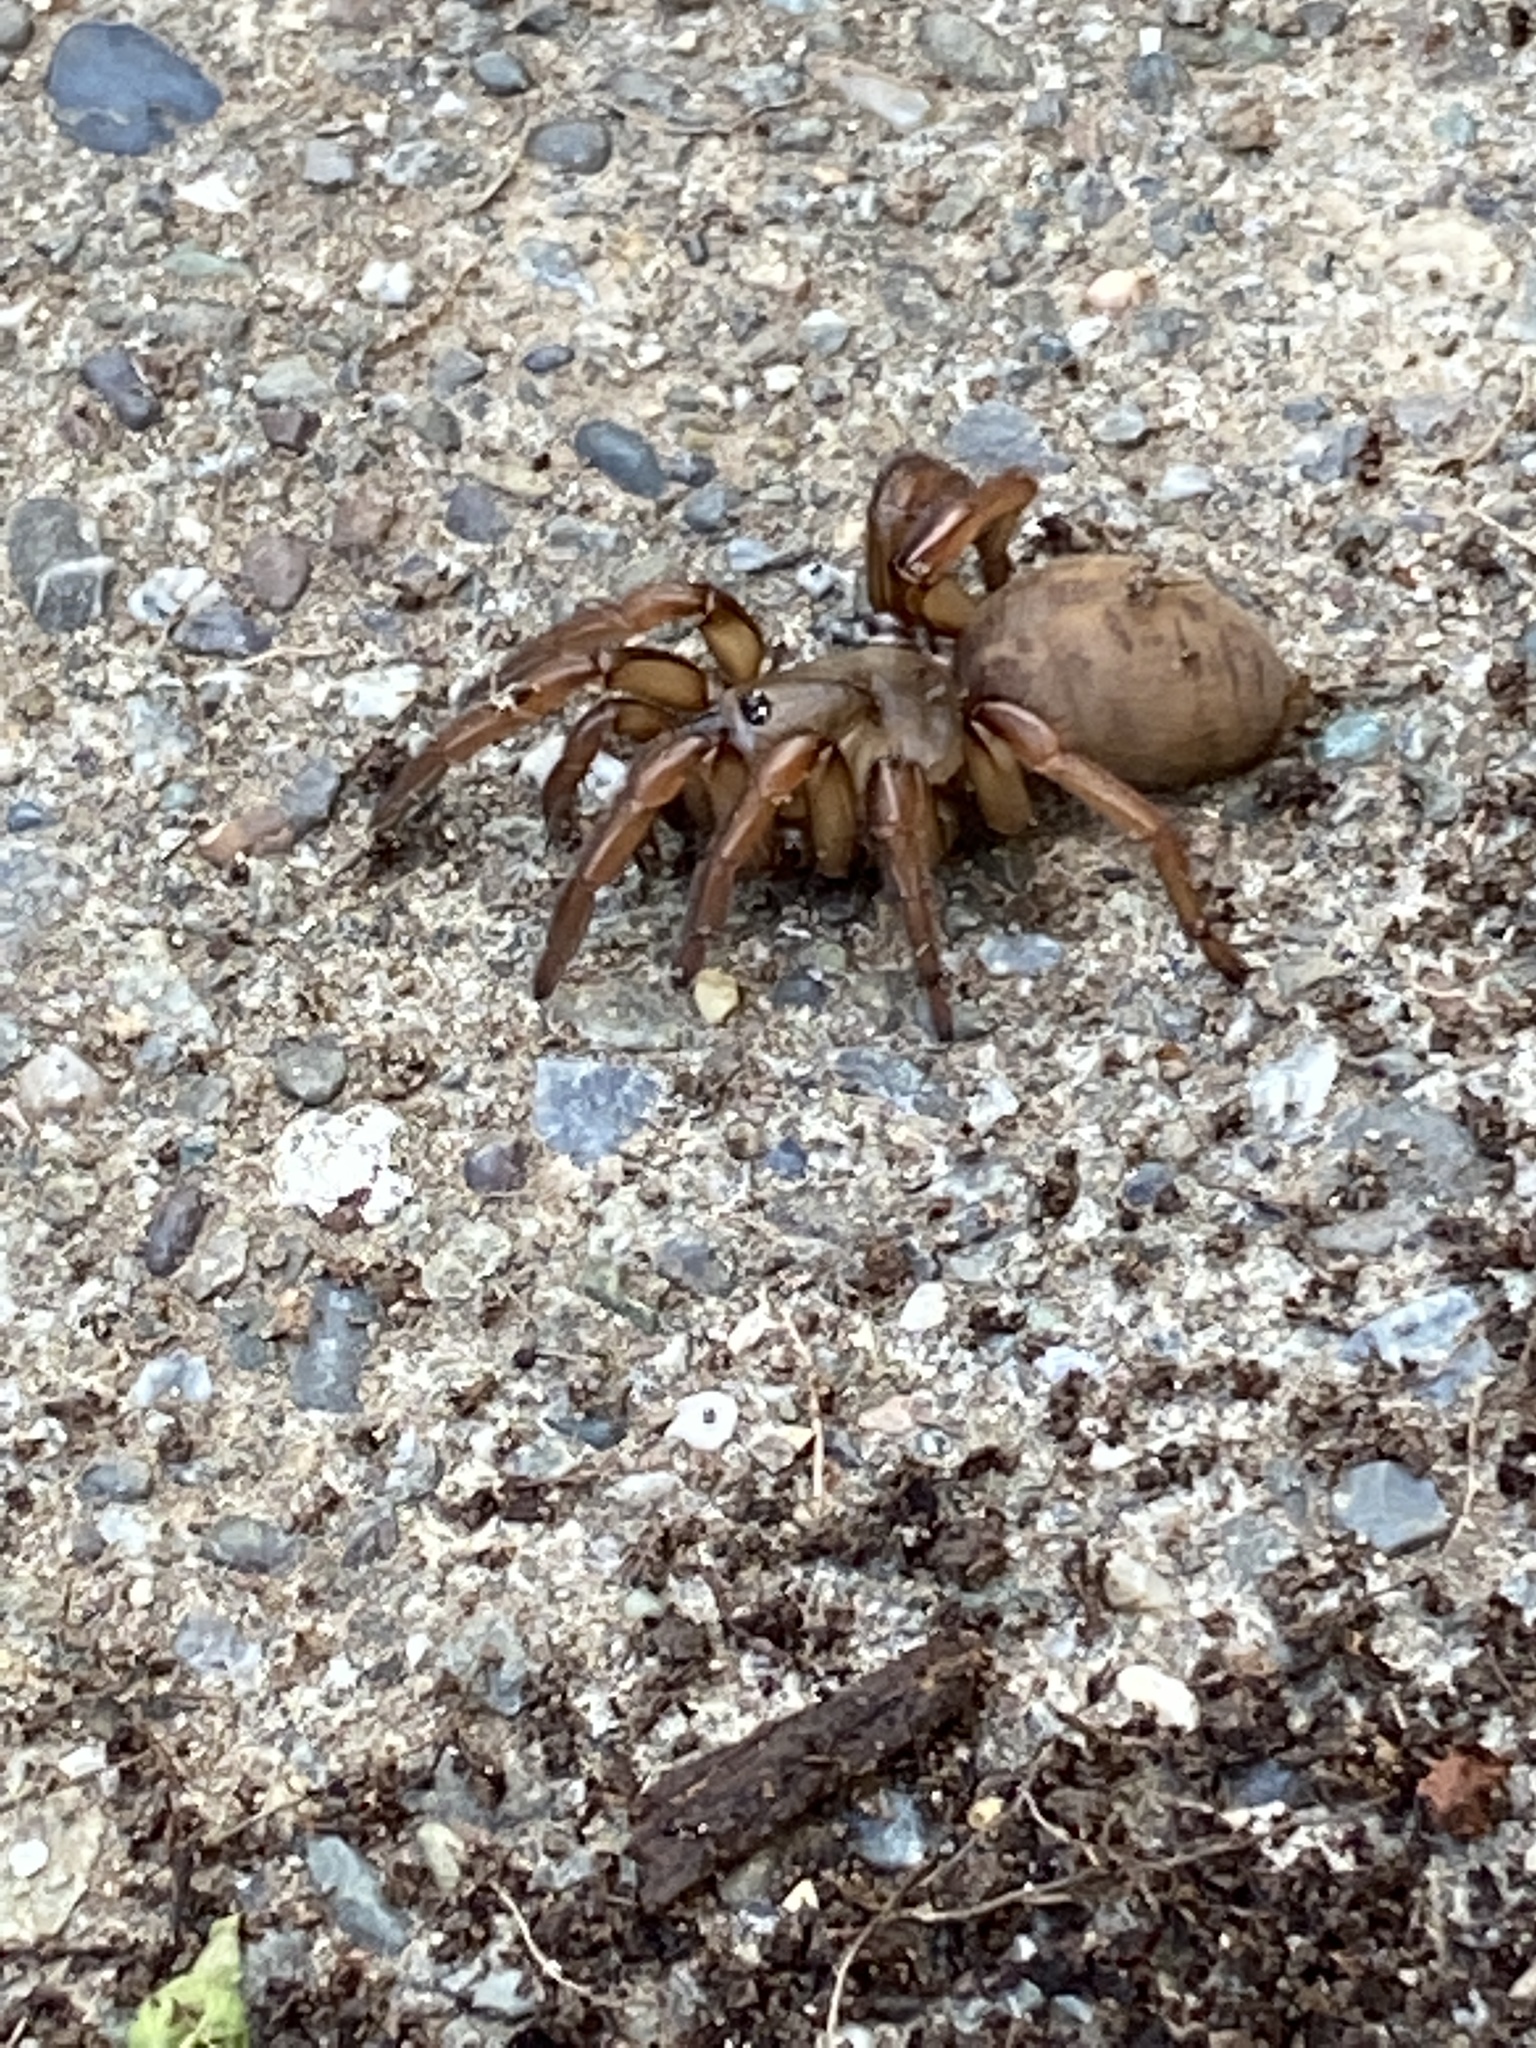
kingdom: Animalia
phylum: Arthropoda
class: Arachnida
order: Araneae
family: Euctenizidae
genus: Aptostichus
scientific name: Aptostichus stanfordianus
